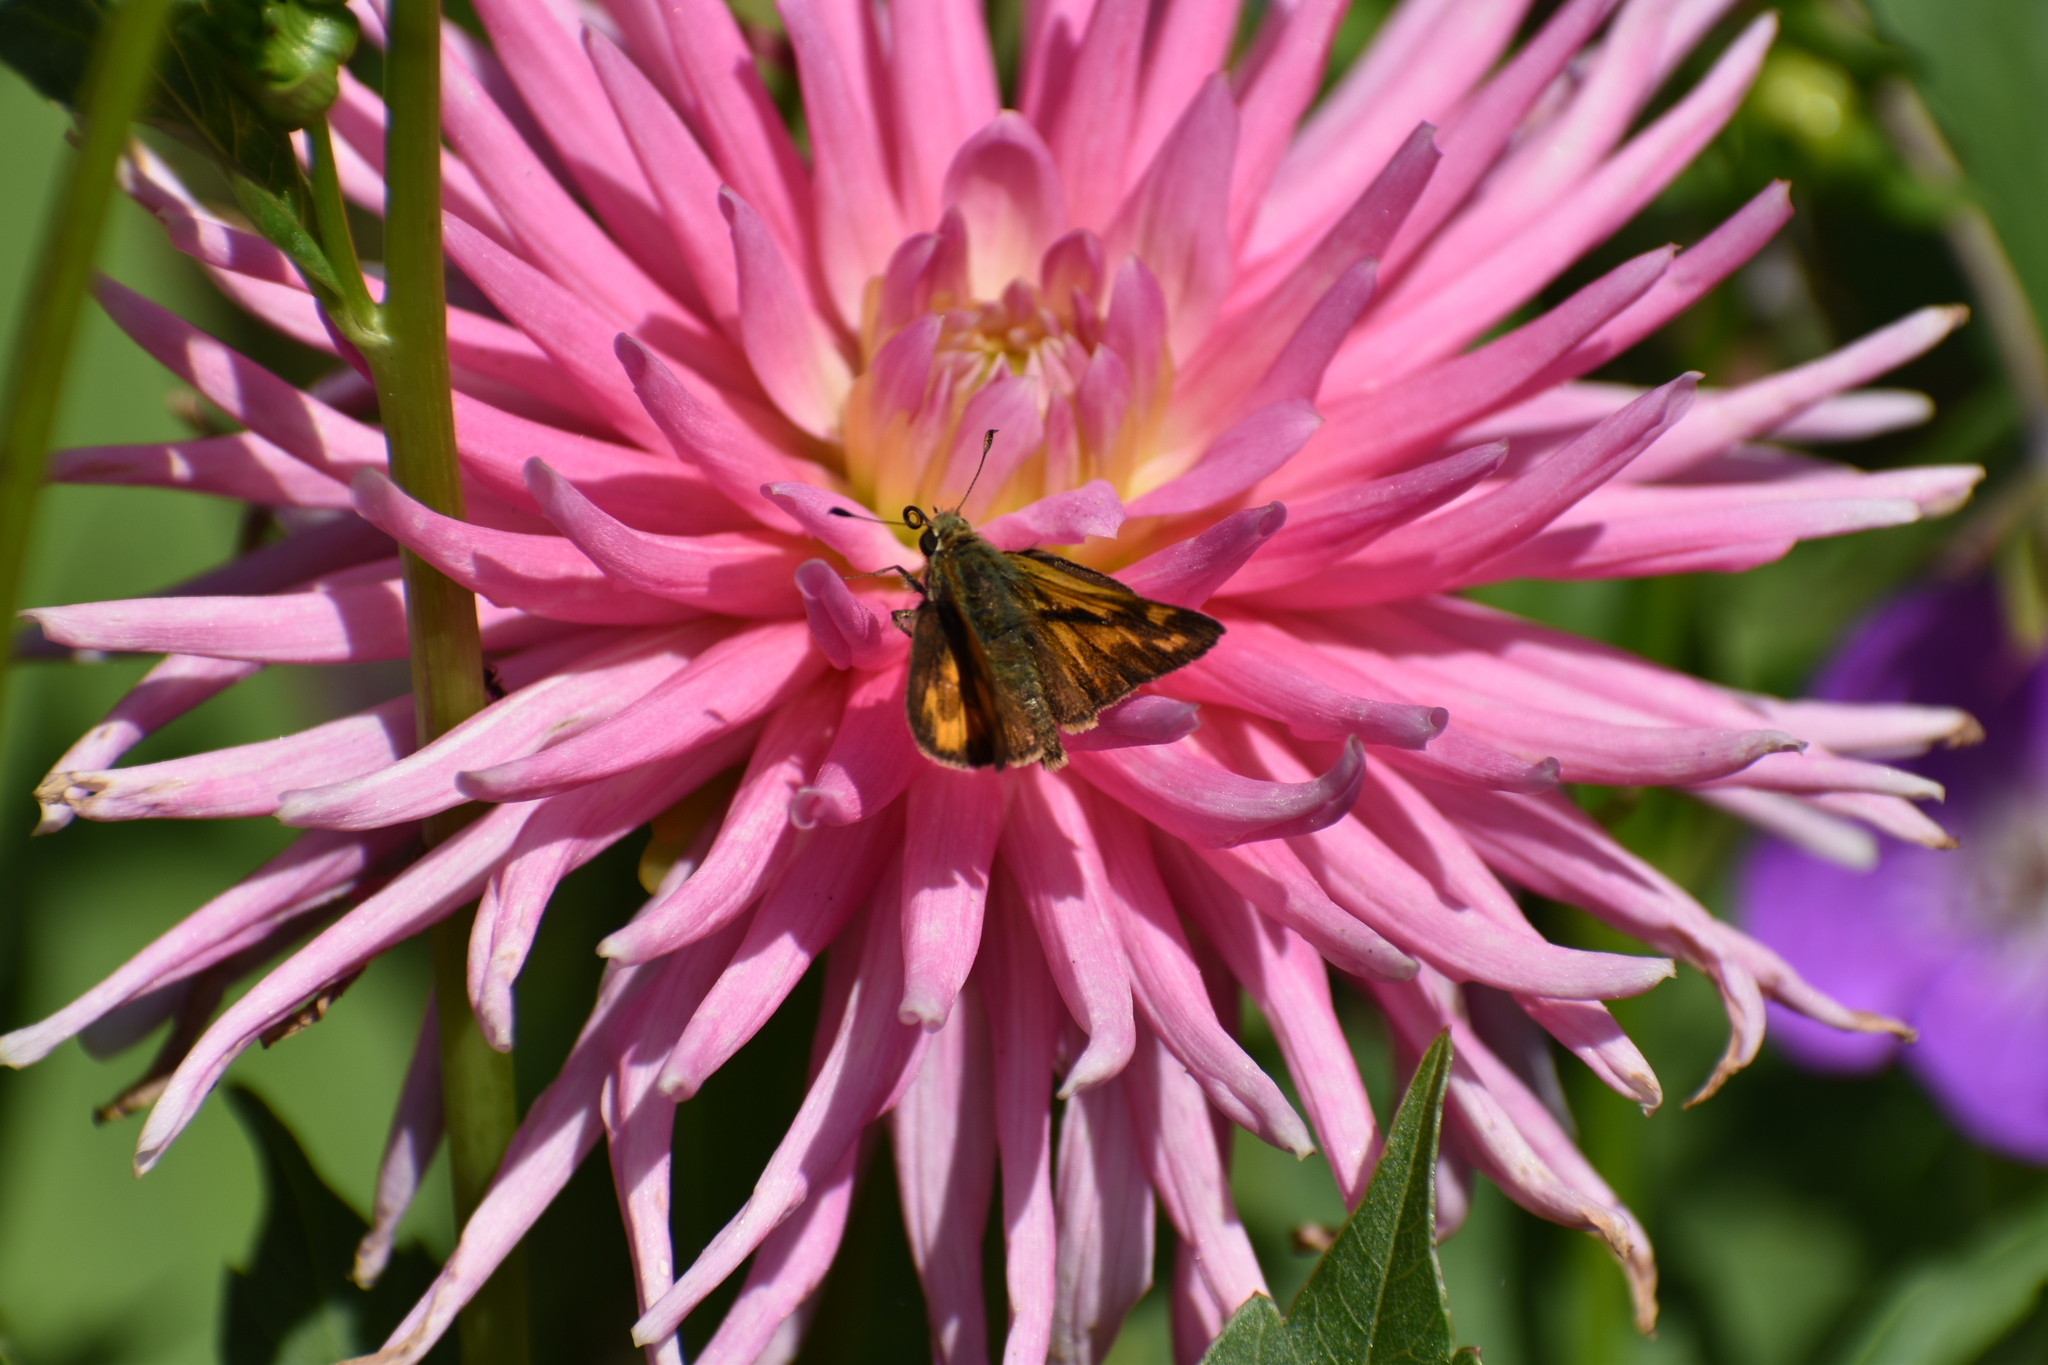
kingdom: Animalia
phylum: Arthropoda
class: Insecta
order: Lepidoptera
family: Hesperiidae
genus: Ochlodes
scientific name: Ochlodes sylvanoides
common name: Woodland skipper
